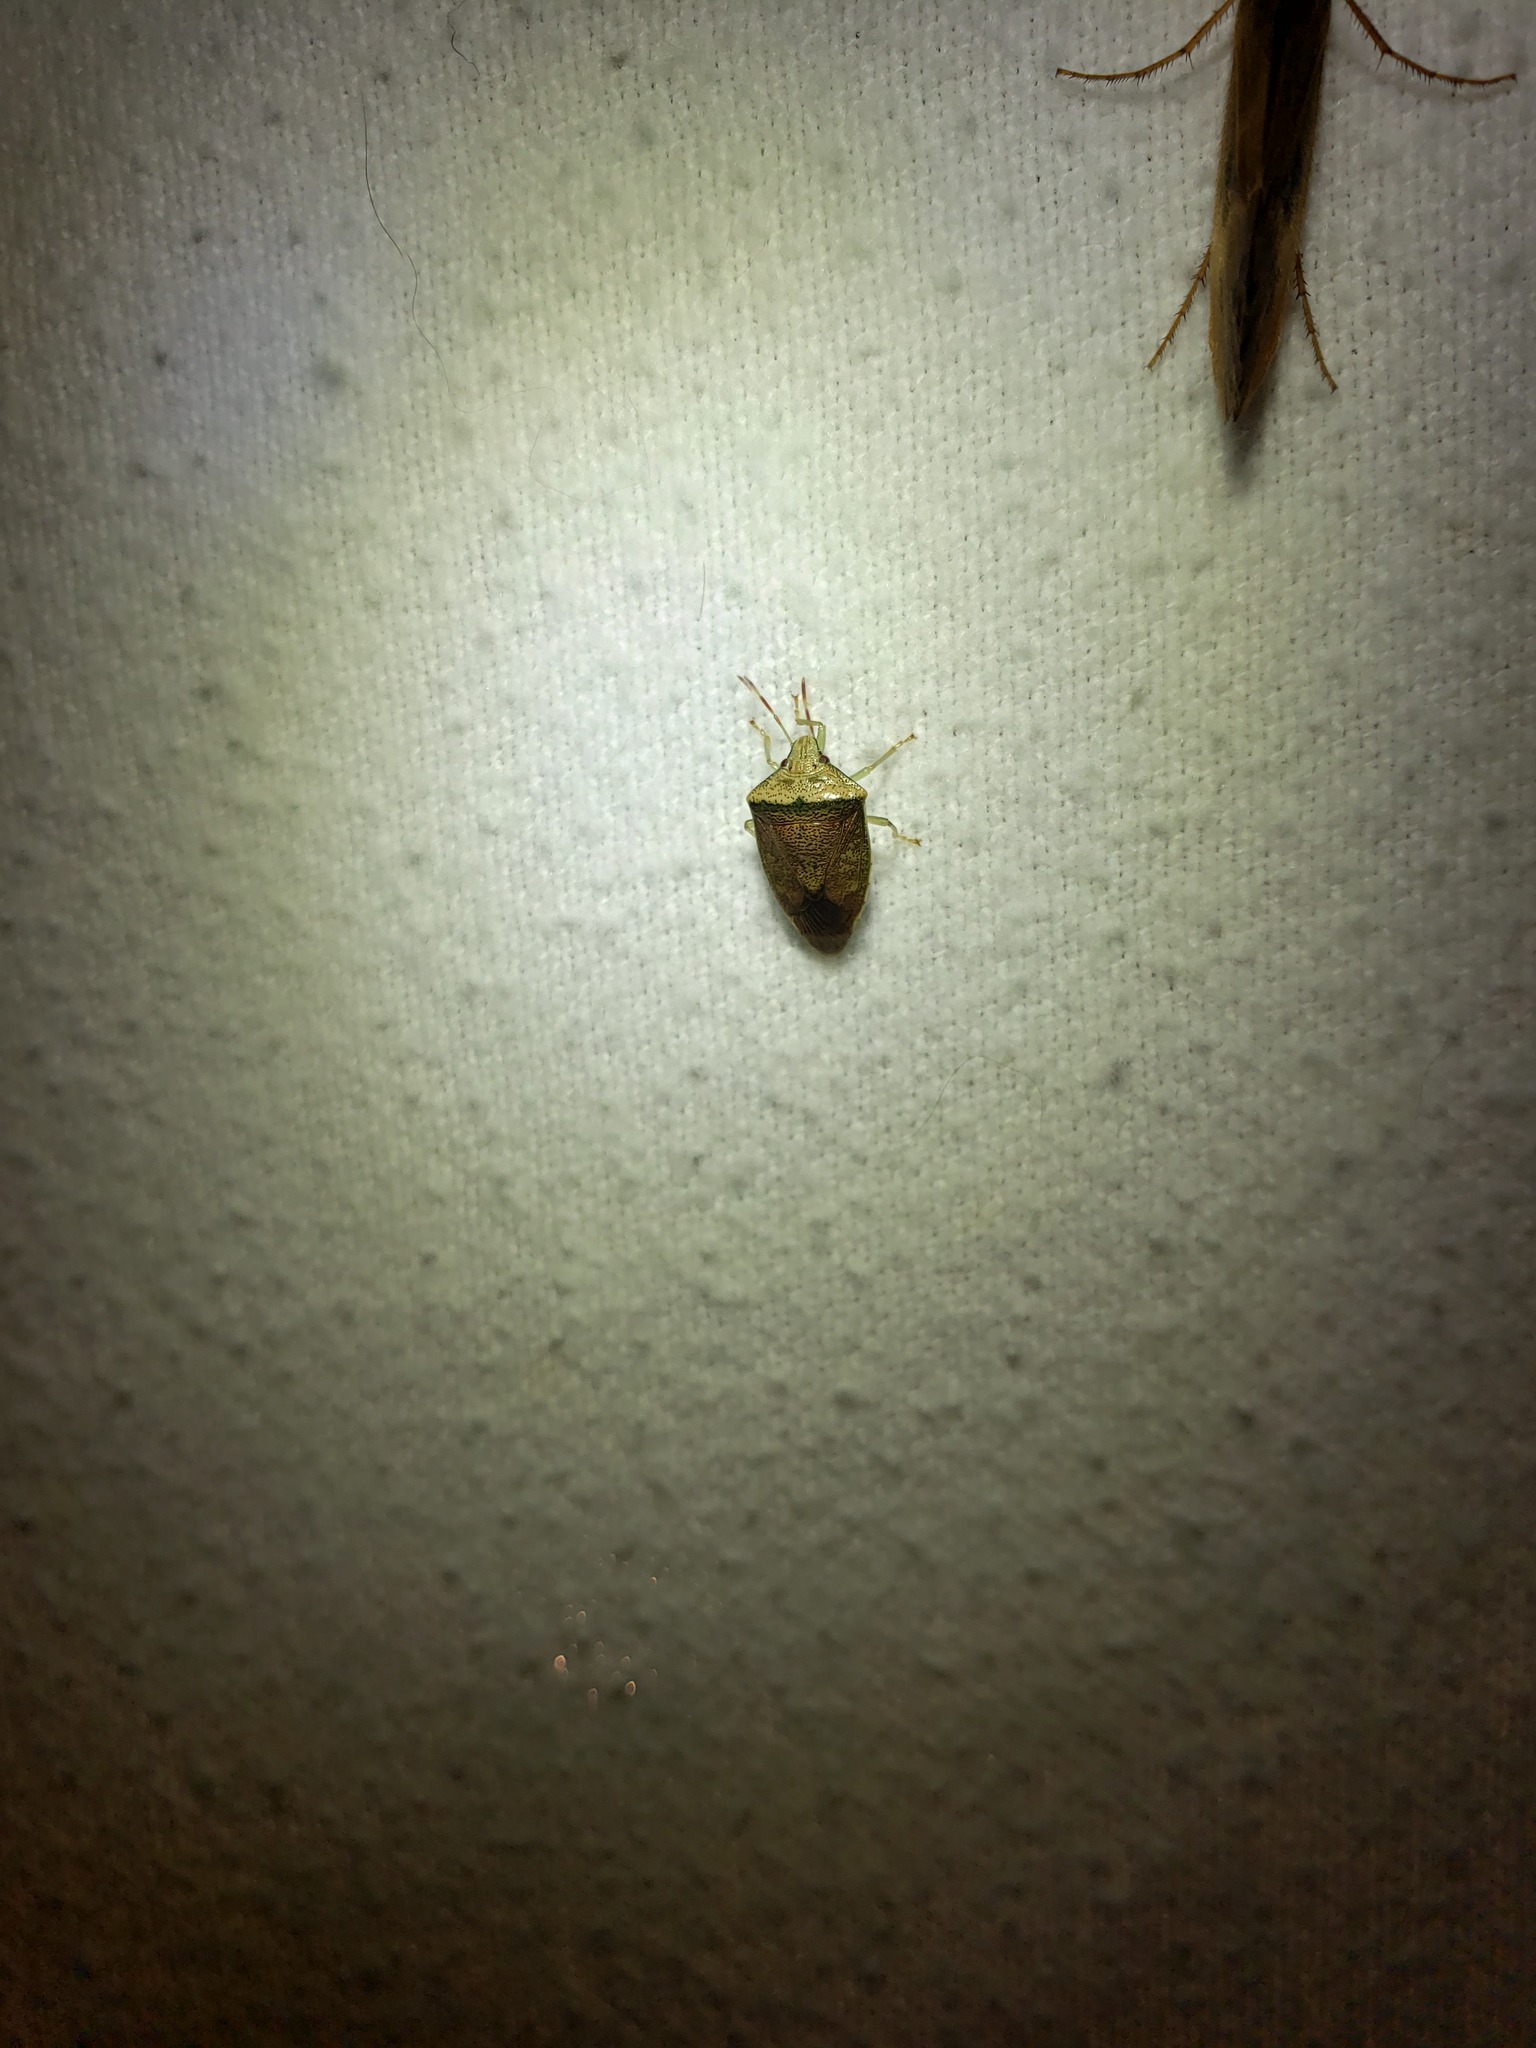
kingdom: Animalia
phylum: Arthropoda
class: Insecta
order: Hemiptera
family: Pentatomidae
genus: Banasa
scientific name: Banasa calva
